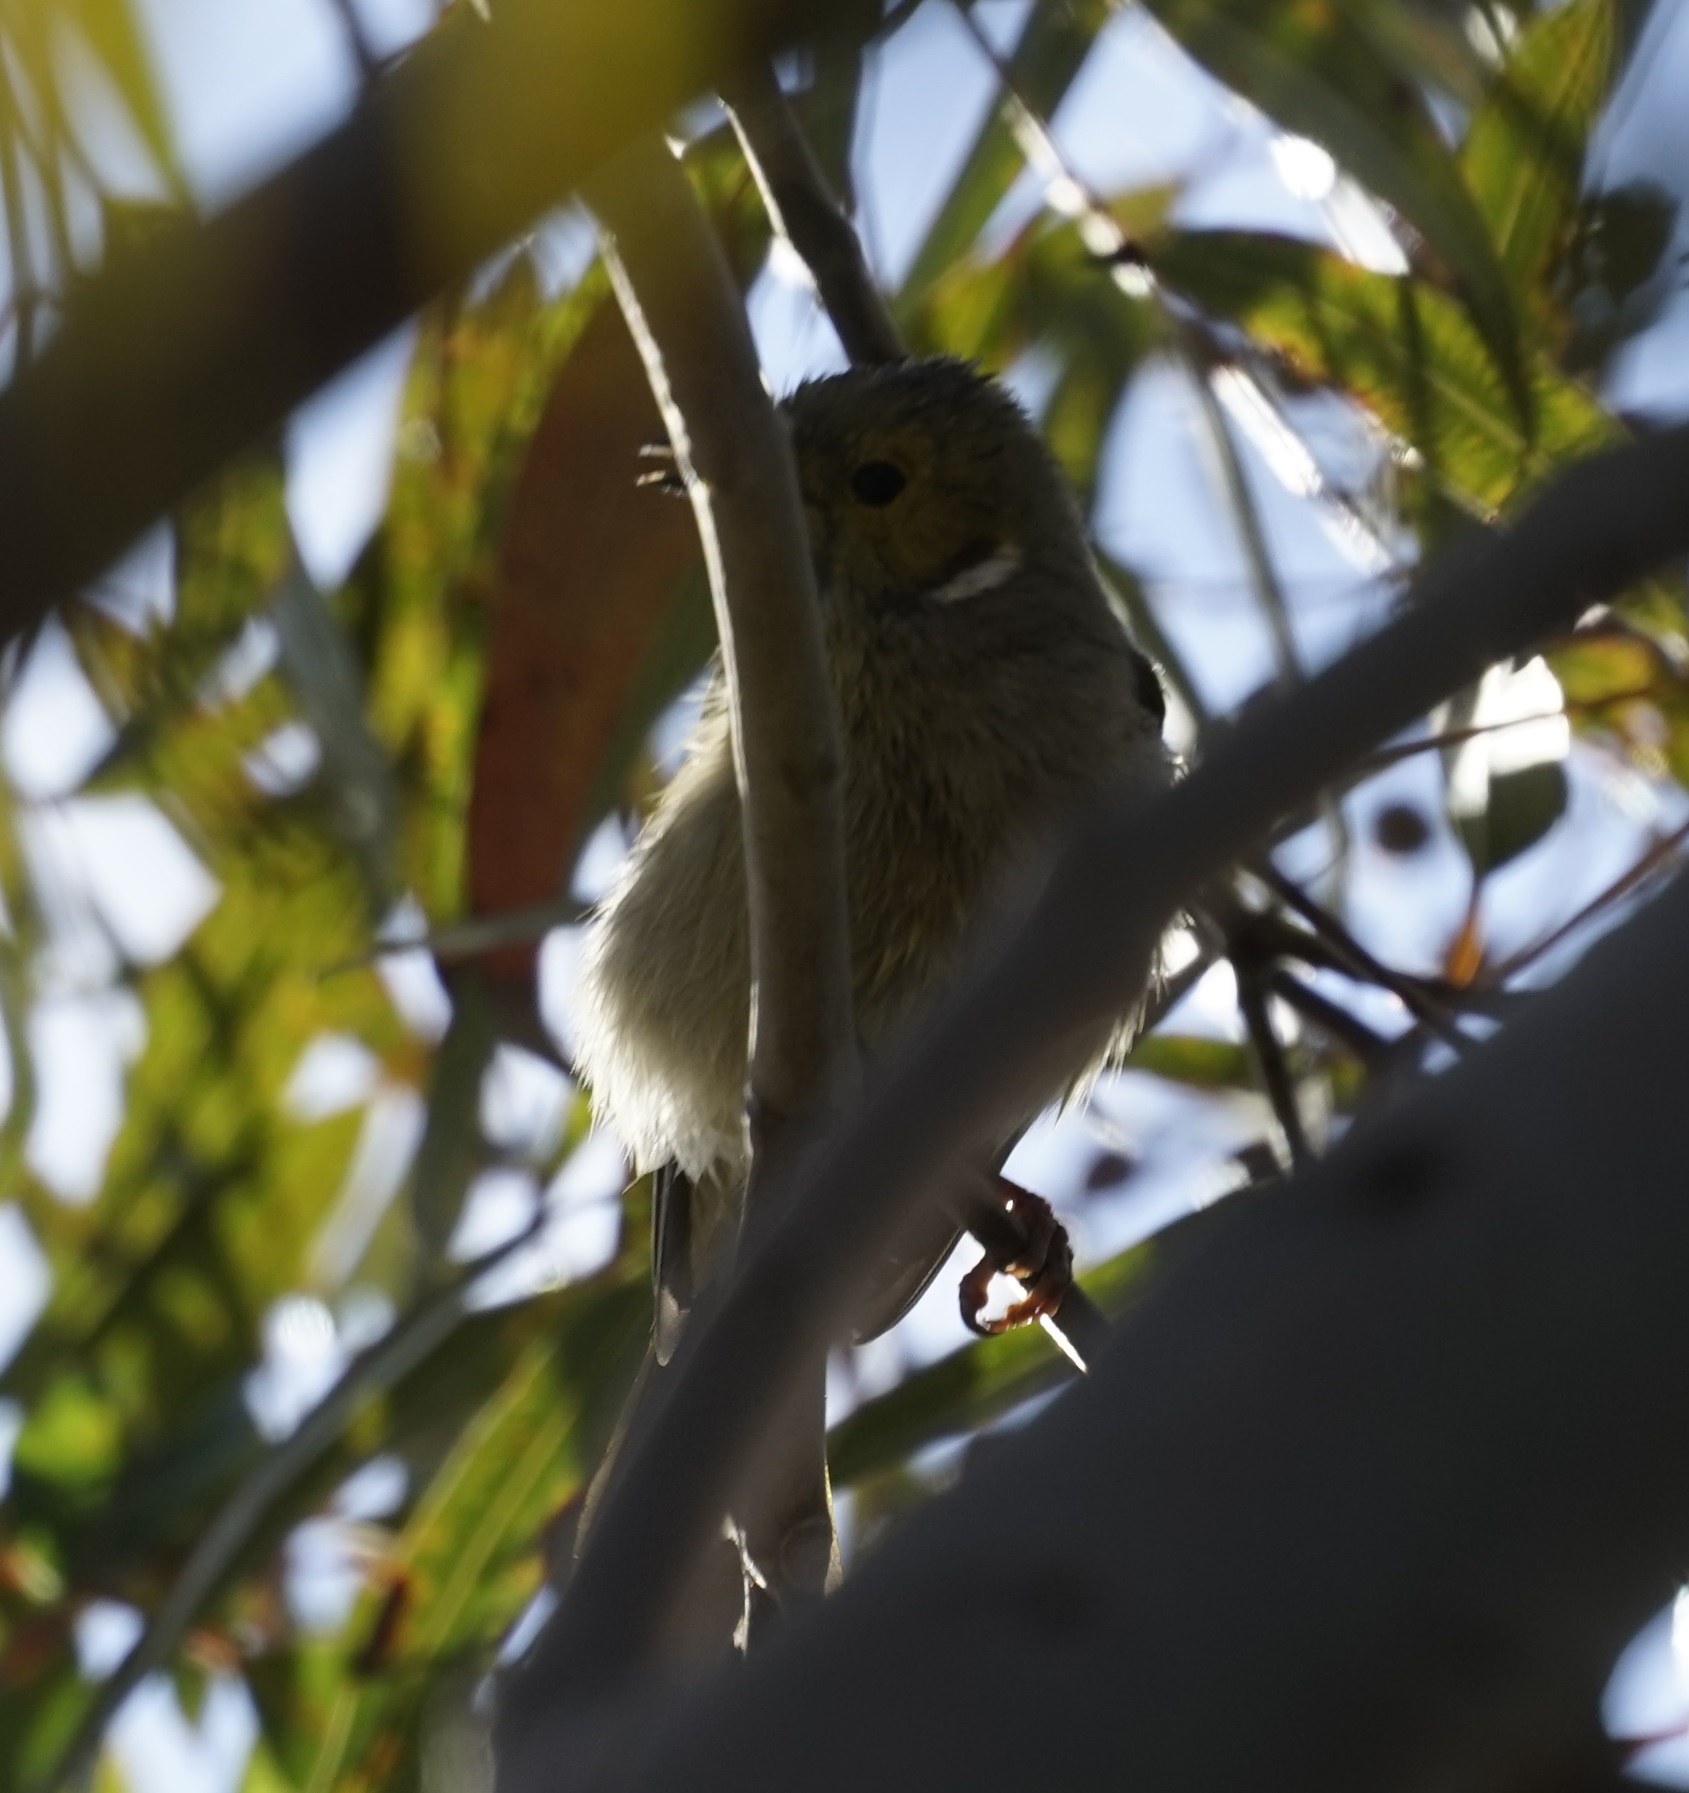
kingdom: Animalia
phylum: Chordata
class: Aves
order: Passeriformes
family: Meliphagidae
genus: Ptilotula
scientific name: Ptilotula penicillata
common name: White-plumed honeyeater
